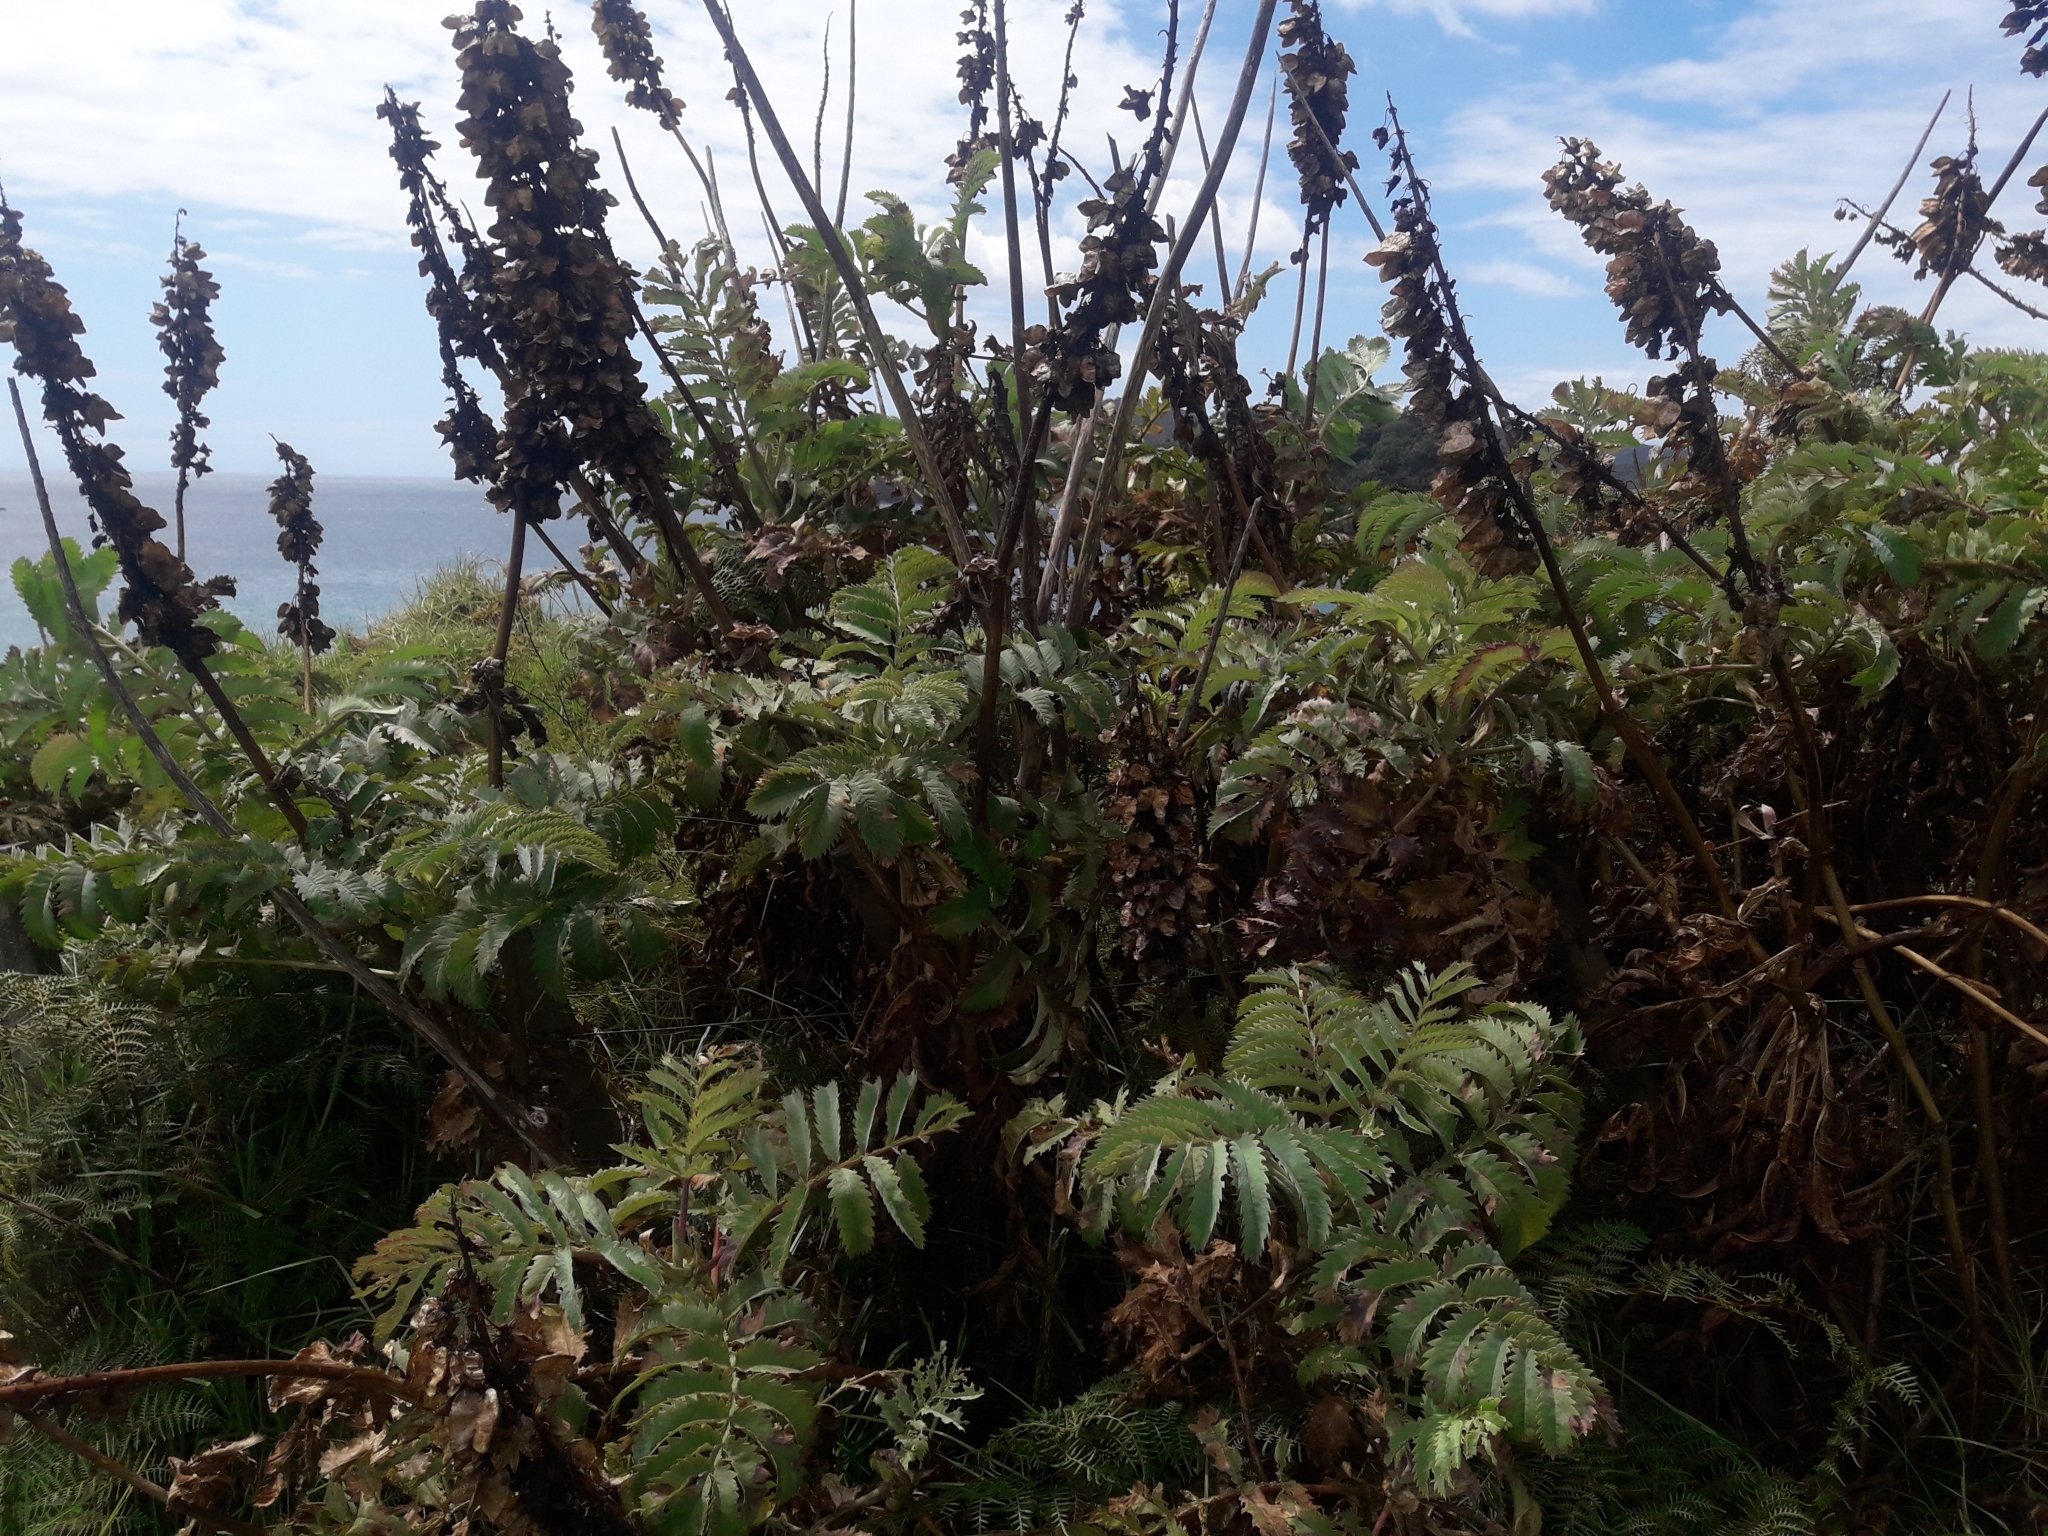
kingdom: Plantae
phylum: Tracheophyta
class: Magnoliopsida
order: Geraniales
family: Melianthaceae
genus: Melianthus
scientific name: Melianthus major
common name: Honey-flower
